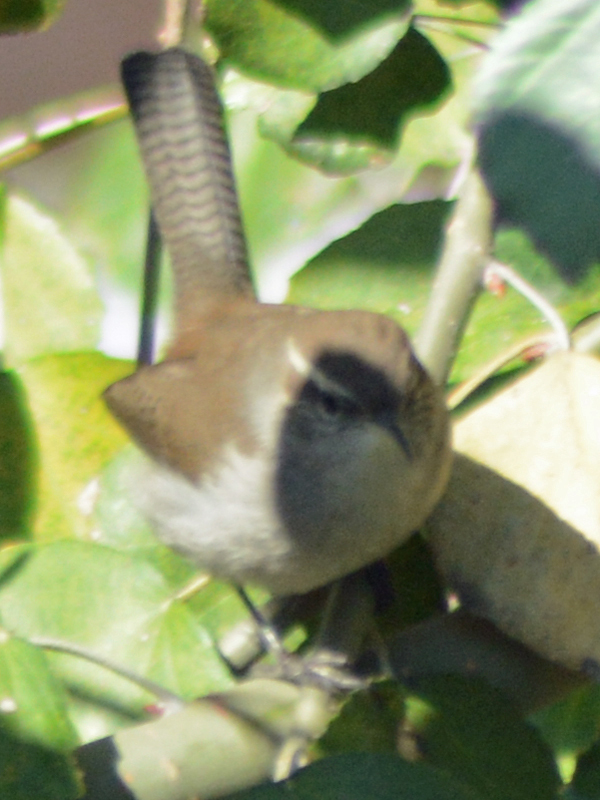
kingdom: Animalia
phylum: Chordata
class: Aves
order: Passeriformes
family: Troglodytidae
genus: Thryomanes
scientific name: Thryomanes bewickii
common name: Bewick's wren
